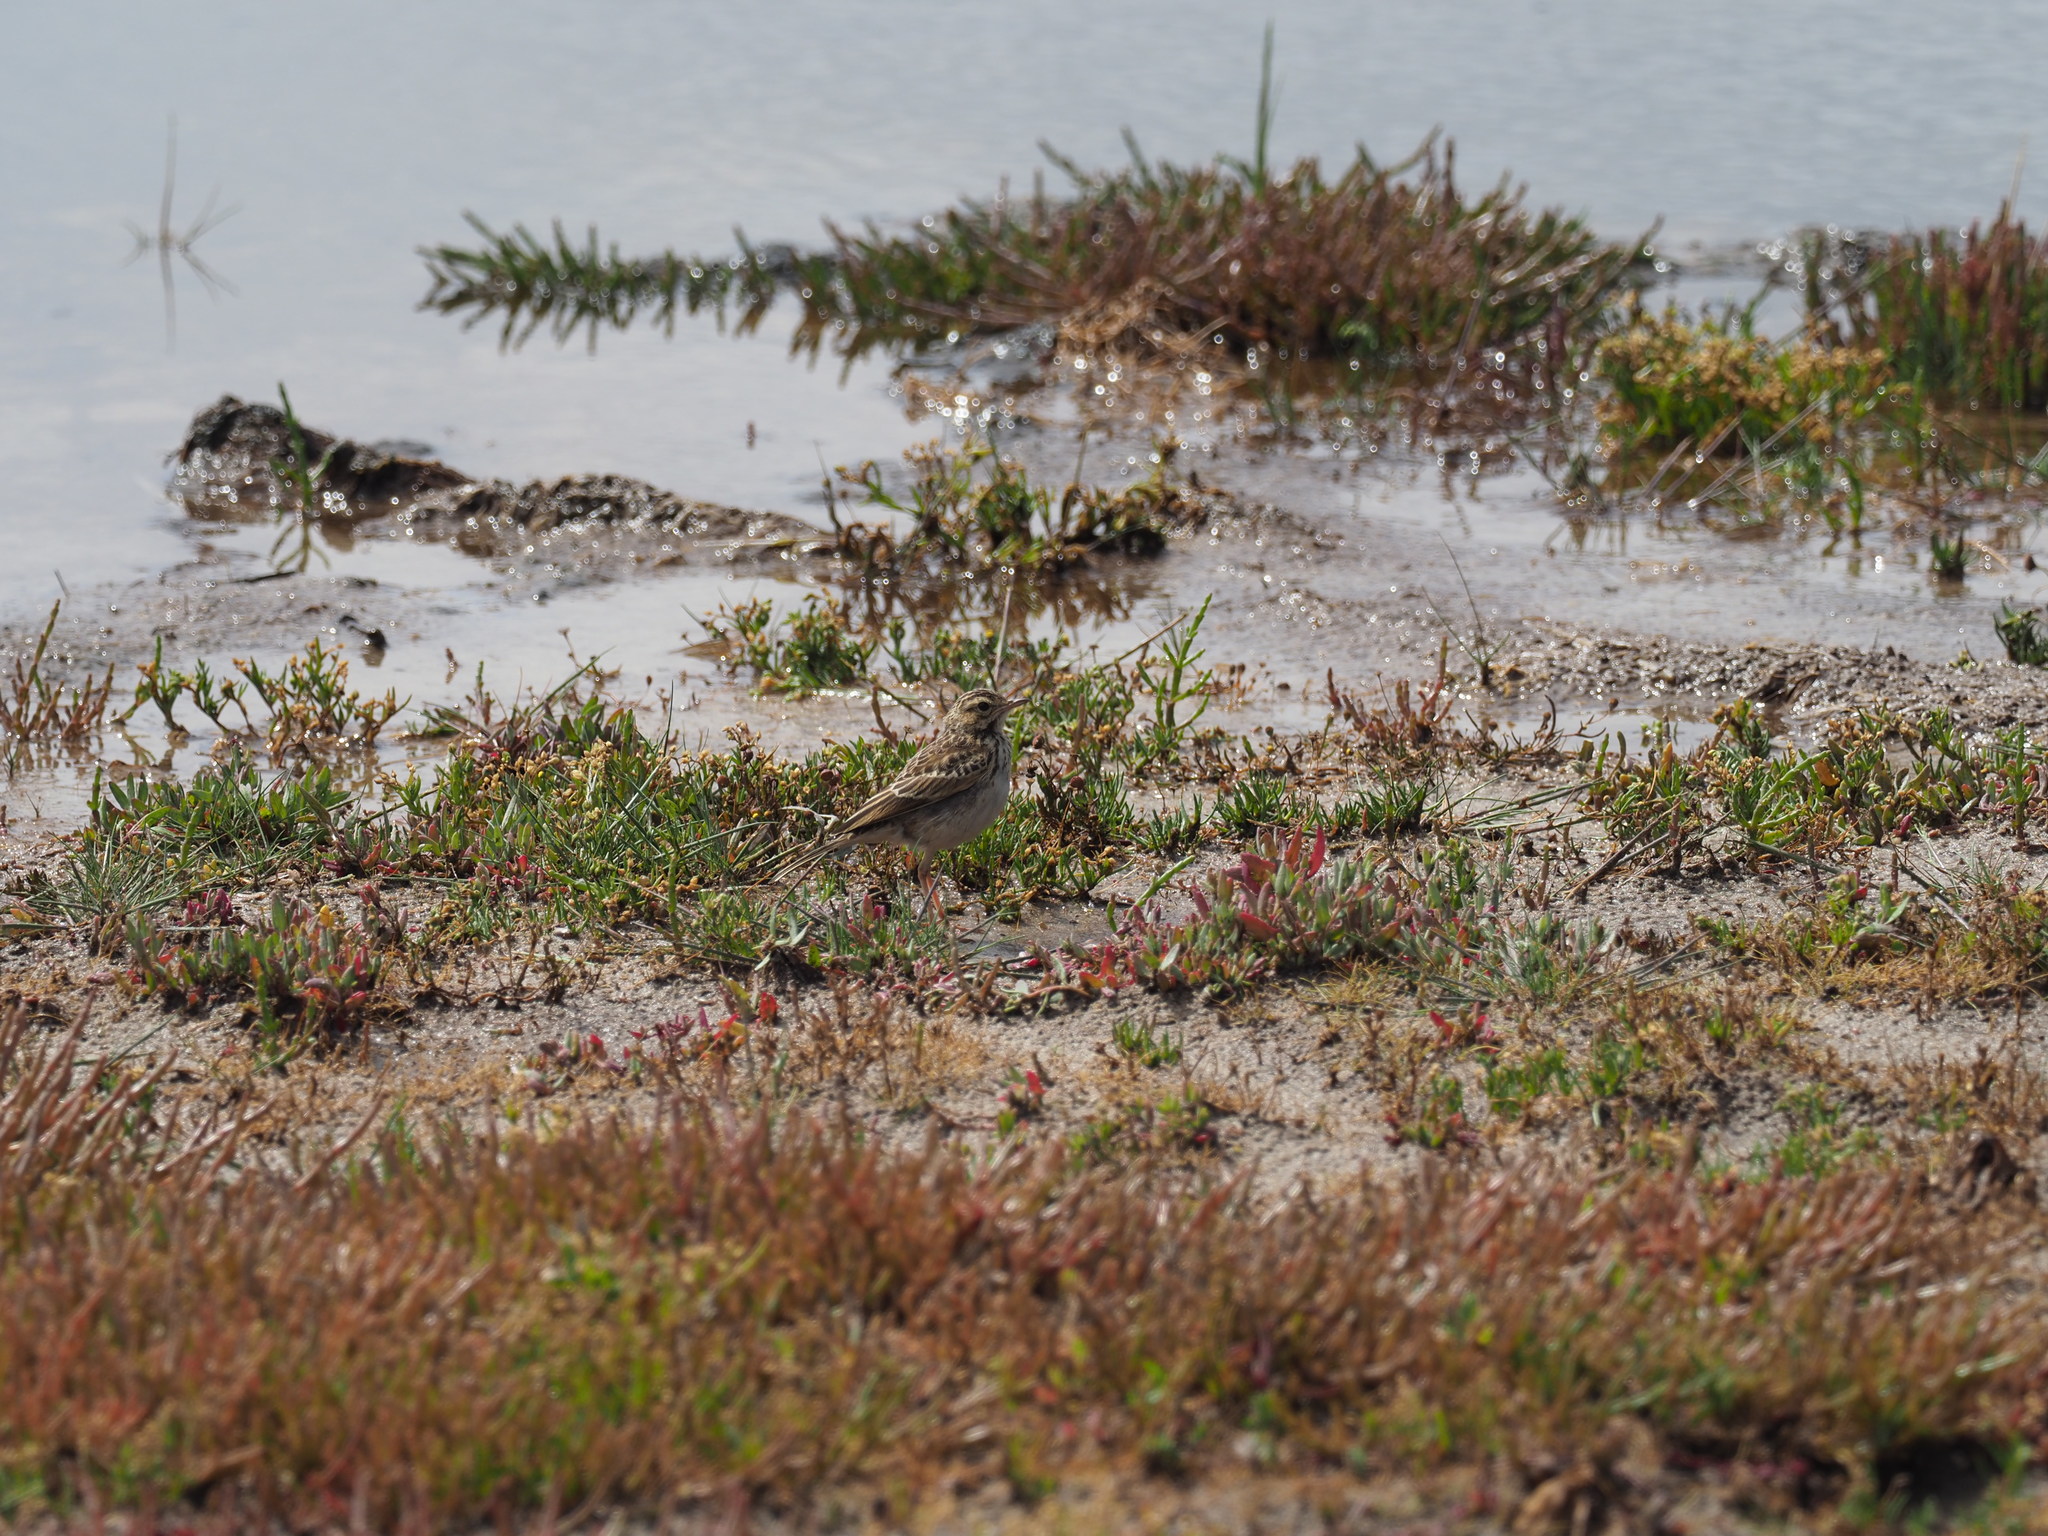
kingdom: Animalia
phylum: Chordata
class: Aves
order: Passeriformes
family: Motacillidae
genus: Anthus
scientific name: Anthus cinnamomeus
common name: African pipit
